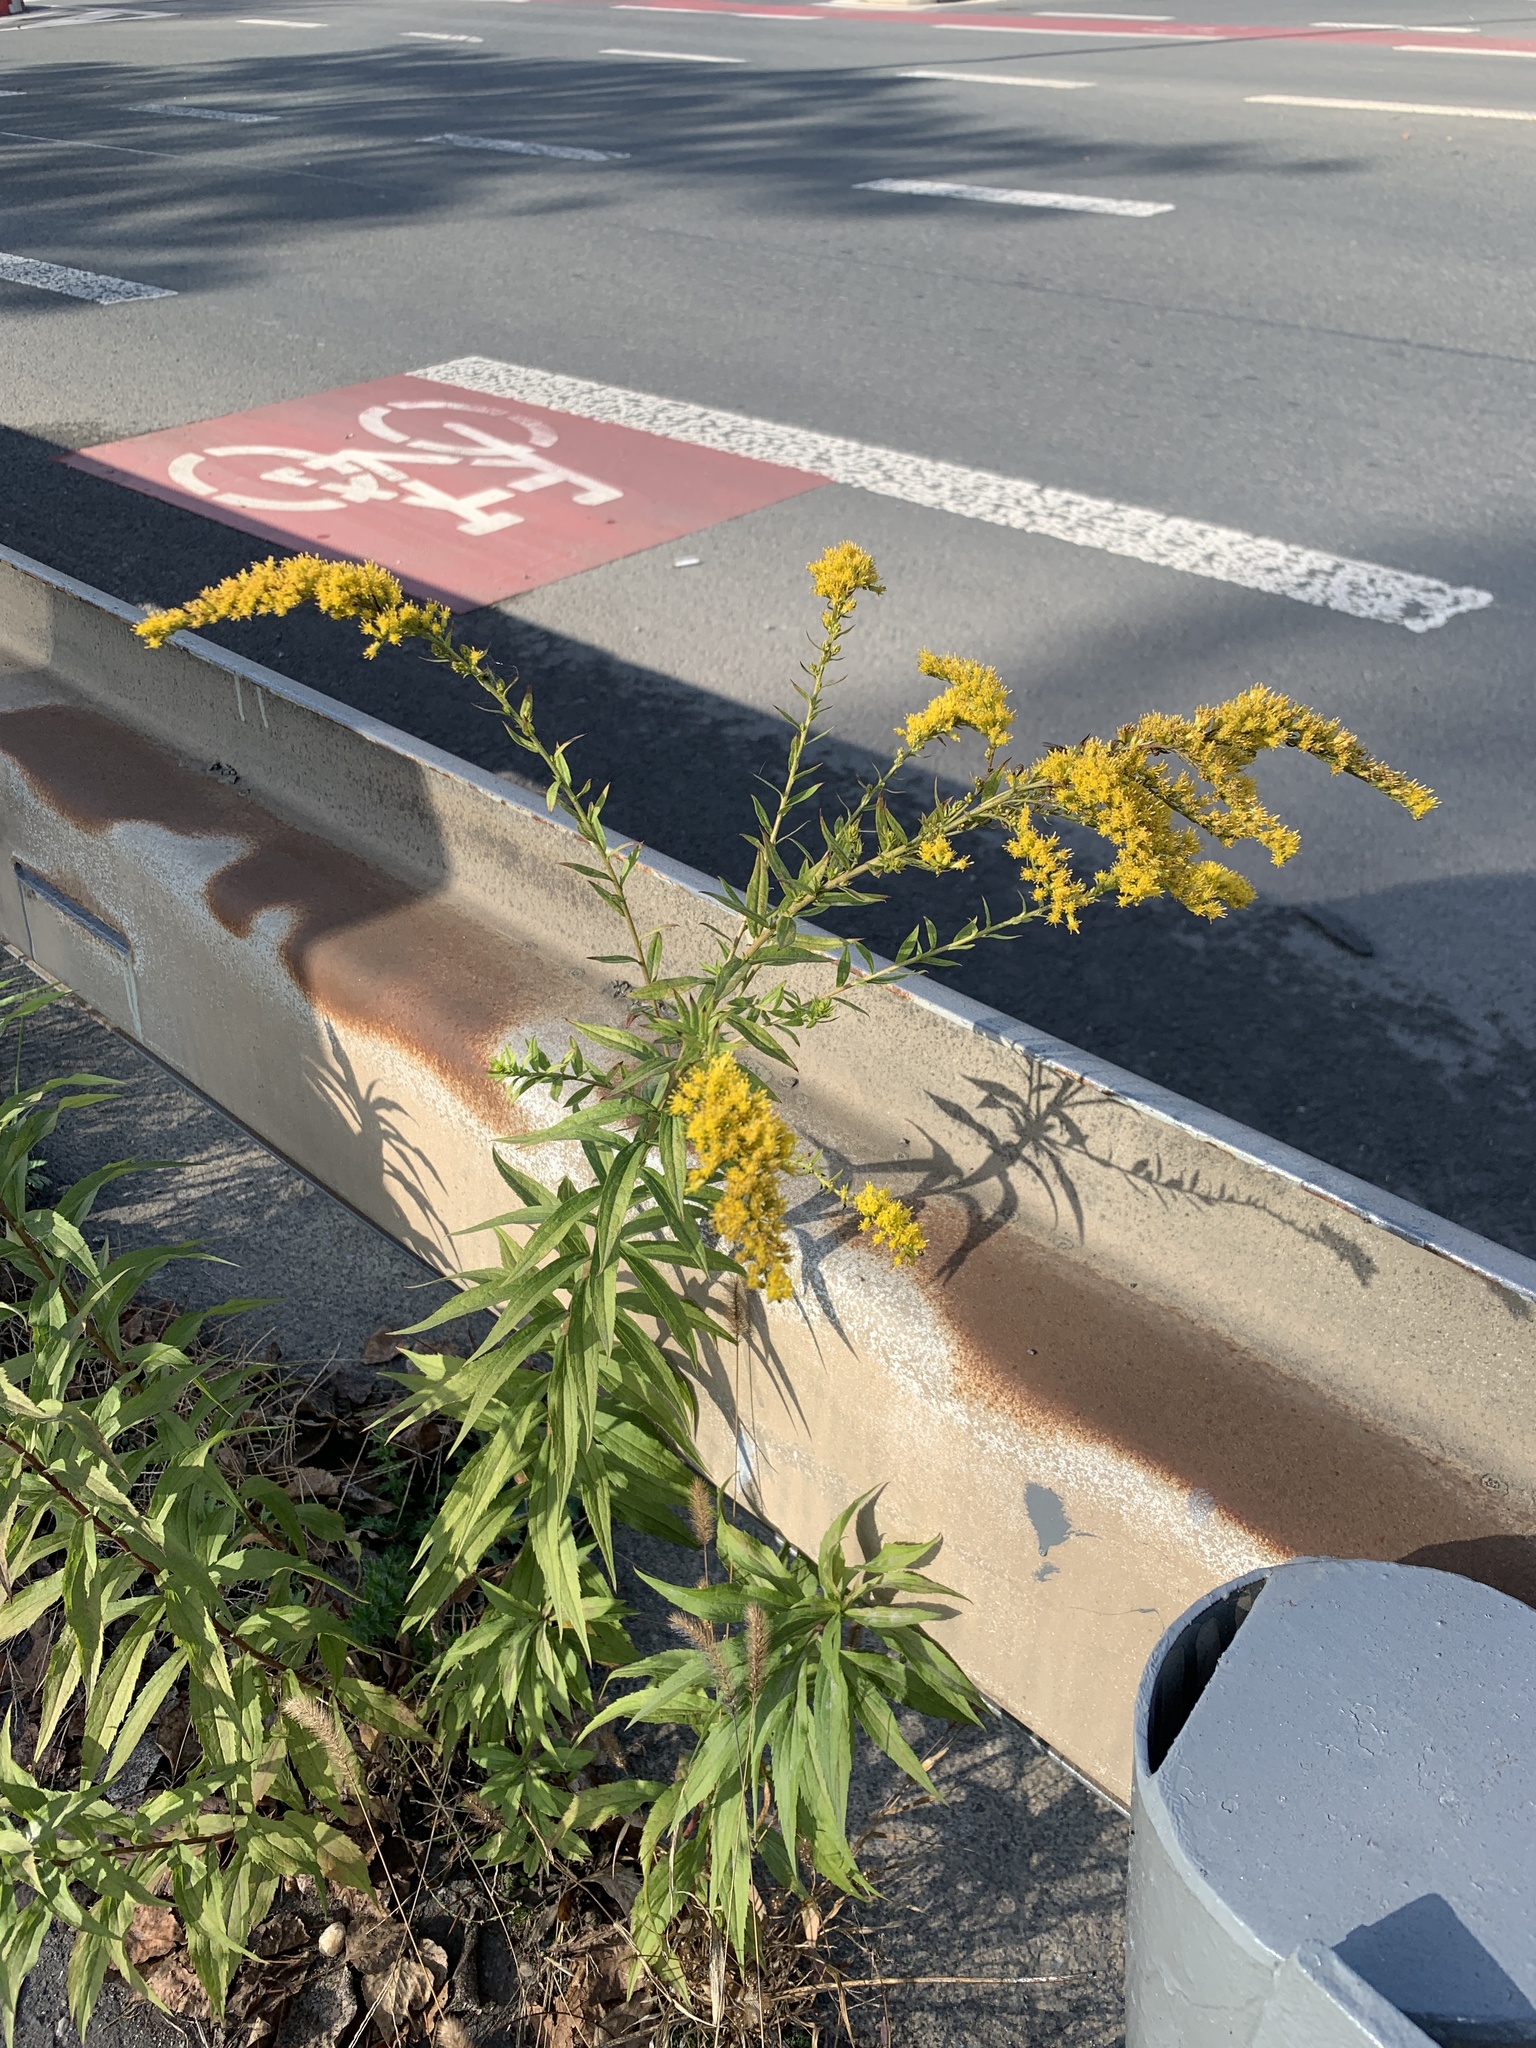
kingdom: Plantae
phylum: Tracheophyta
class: Magnoliopsida
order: Asterales
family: Asteraceae
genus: Solidago
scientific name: Solidago canadensis
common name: Canada goldenrod
